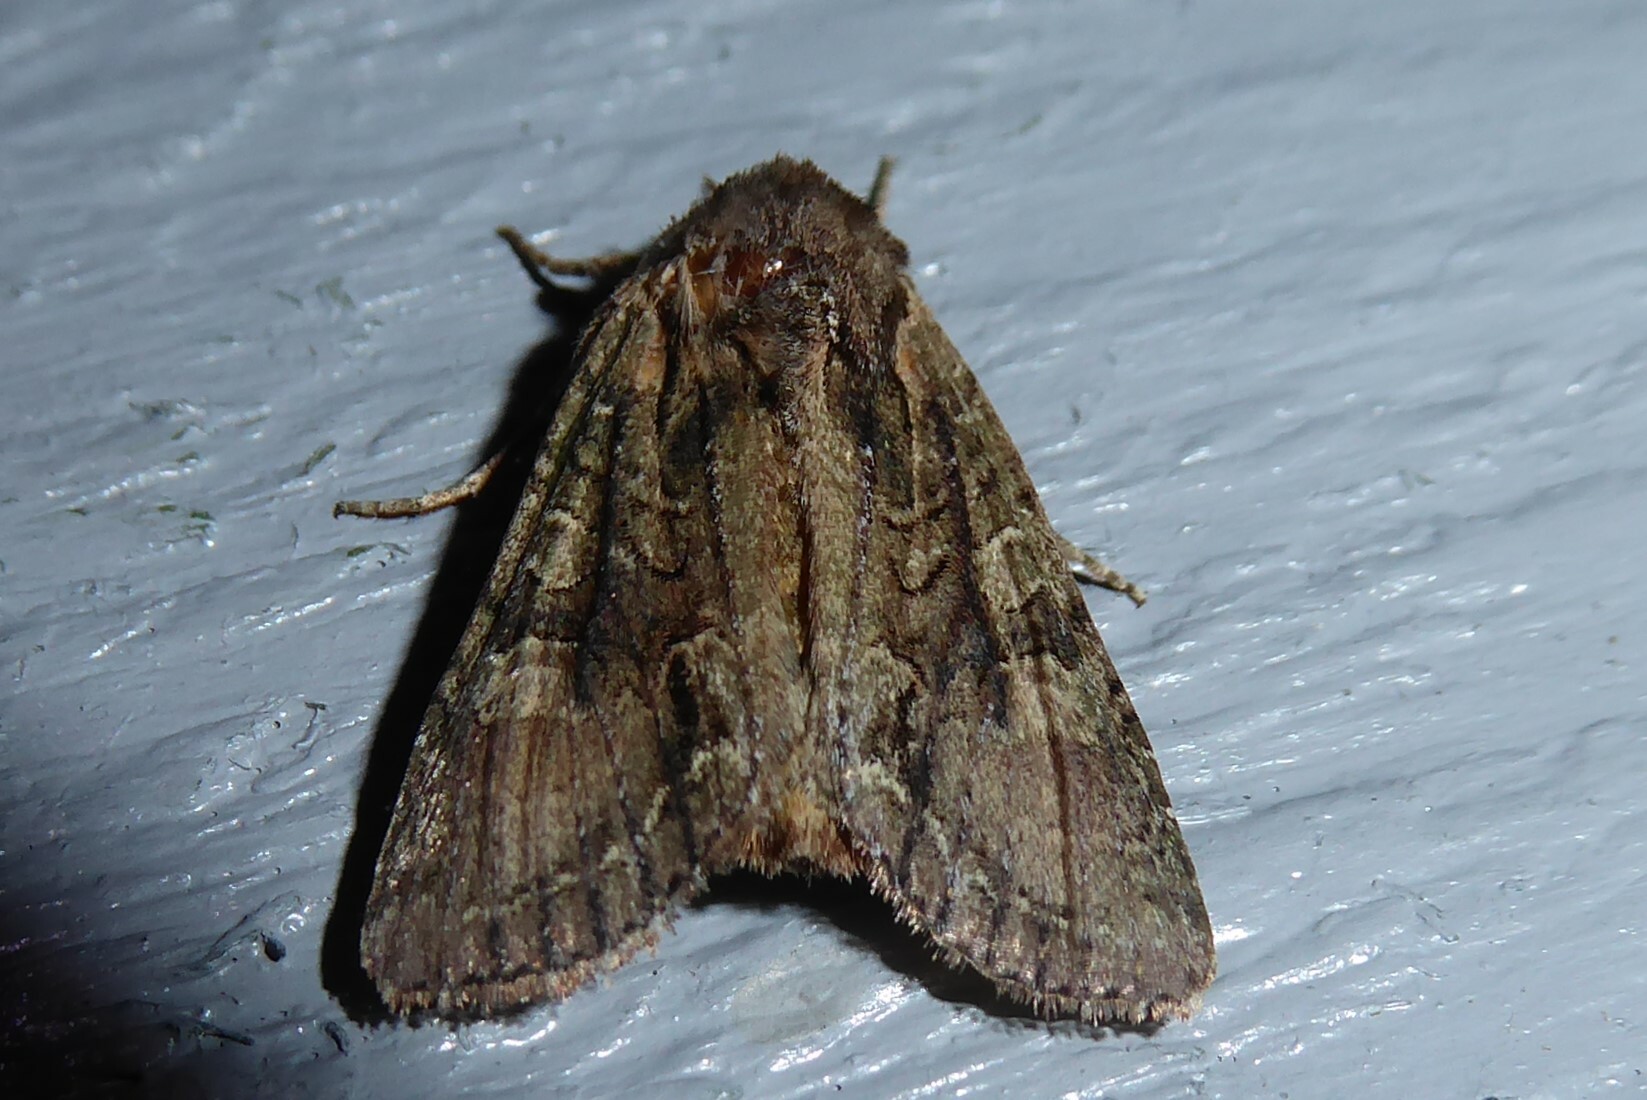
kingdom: Animalia
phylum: Arthropoda
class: Insecta
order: Lepidoptera
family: Noctuidae
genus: Ichneutica
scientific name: Ichneutica mutans
